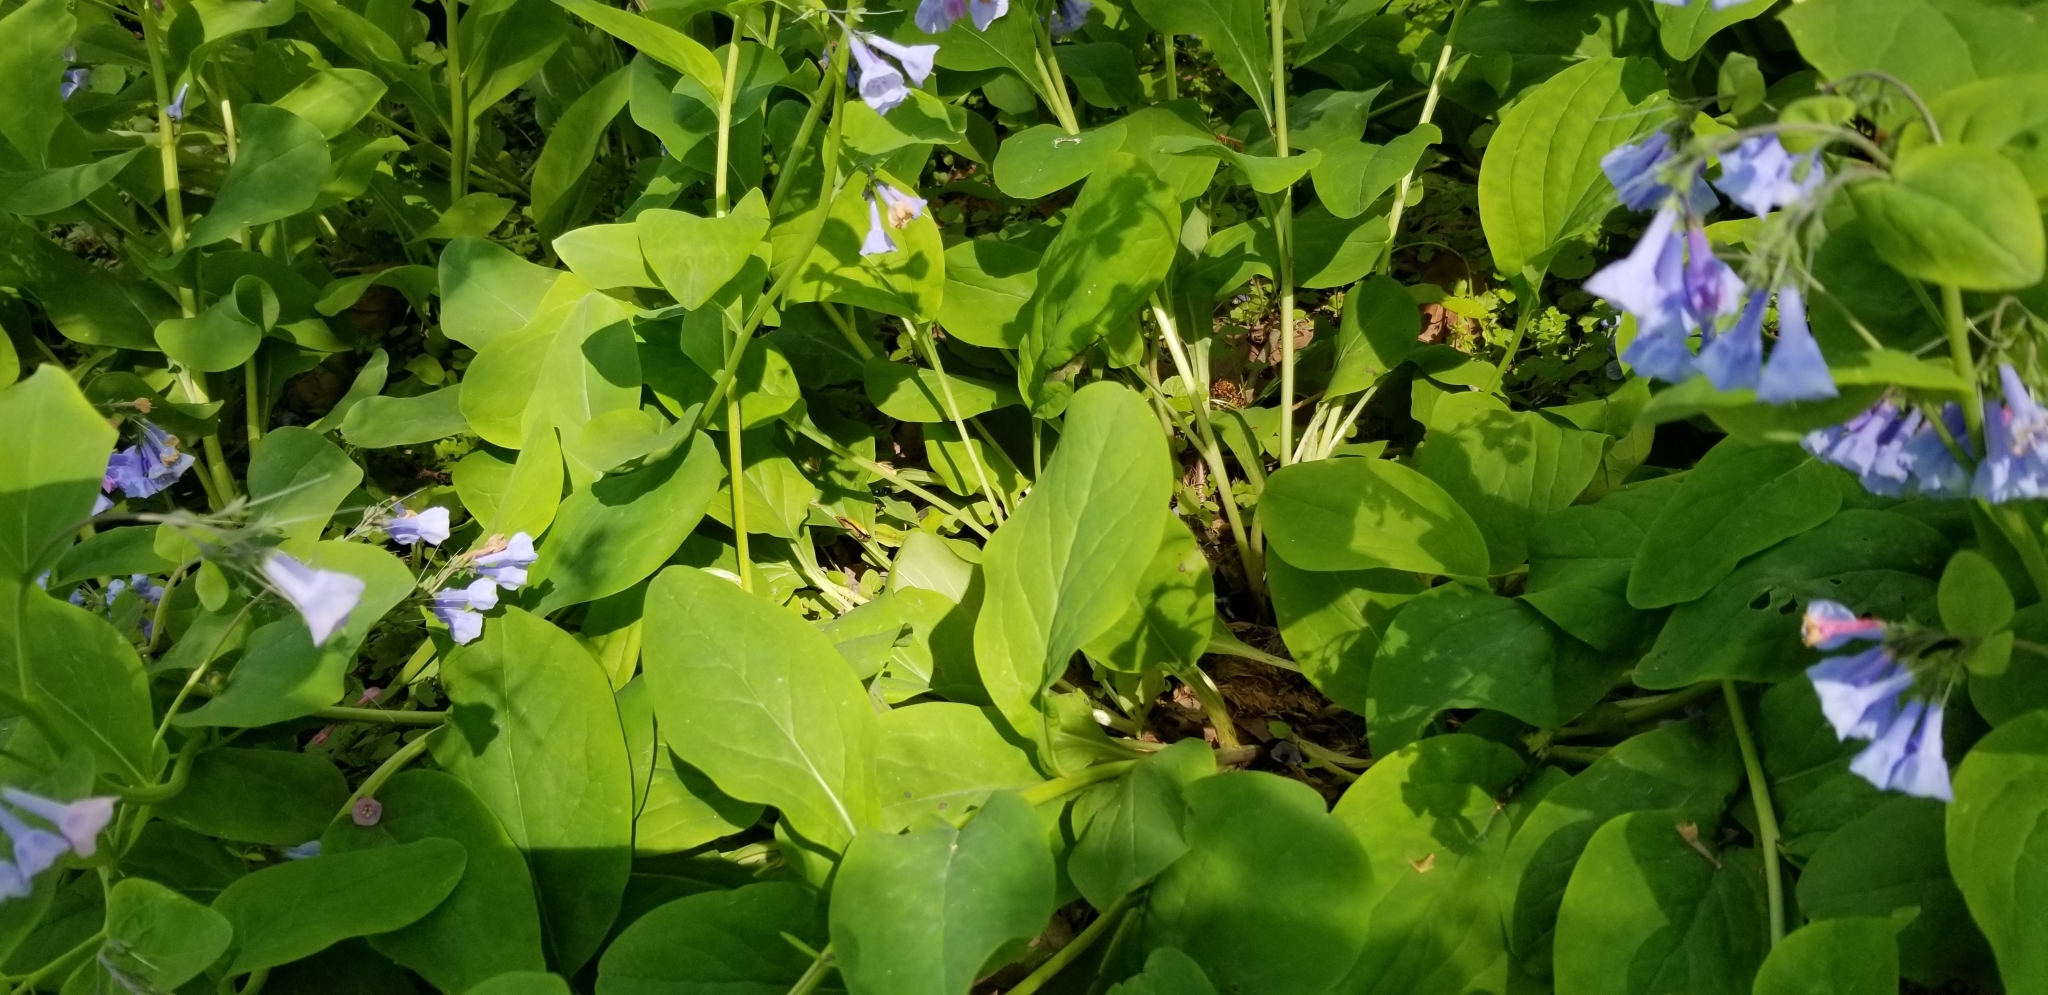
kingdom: Plantae
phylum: Tracheophyta
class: Magnoliopsida
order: Boraginales
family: Boraginaceae
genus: Mertensia
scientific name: Mertensia virginica
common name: Virginia bluebells
